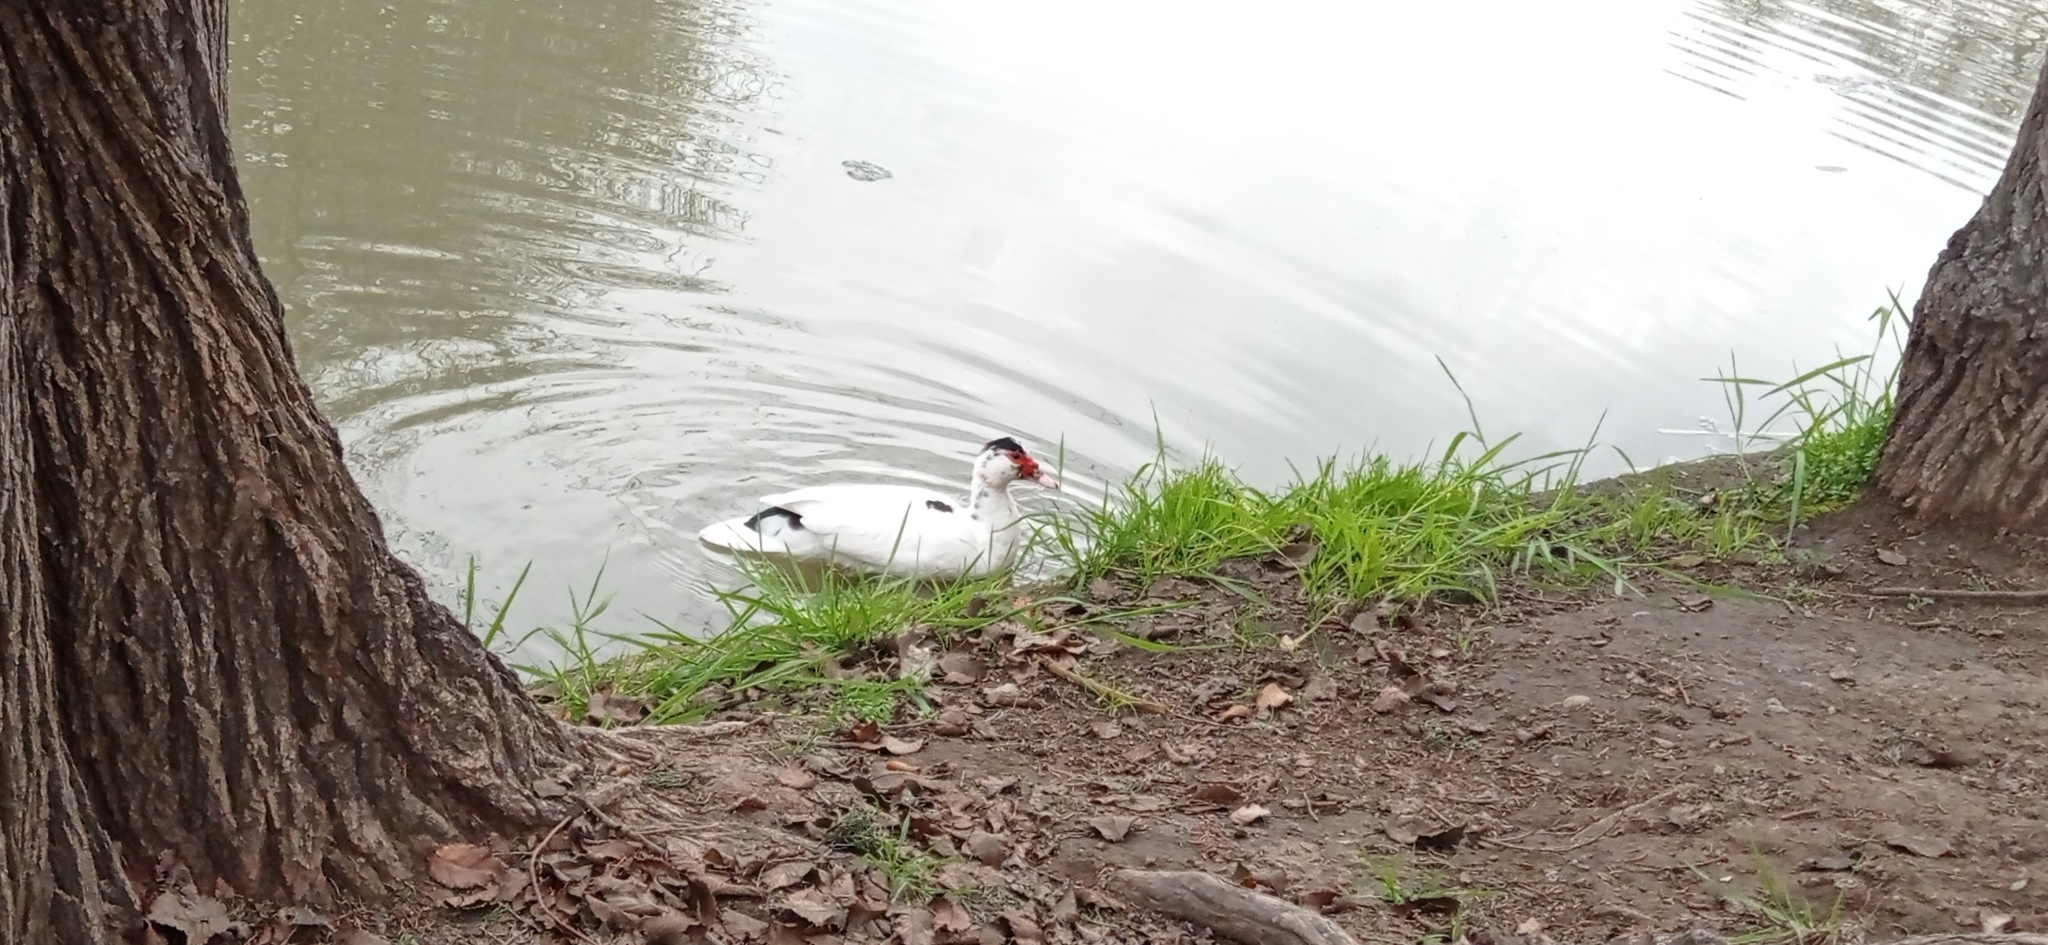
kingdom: Animalia
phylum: Chordata
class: Aves
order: Anseriformes
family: Anatidae
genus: Cairina
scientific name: Cairina moschata
